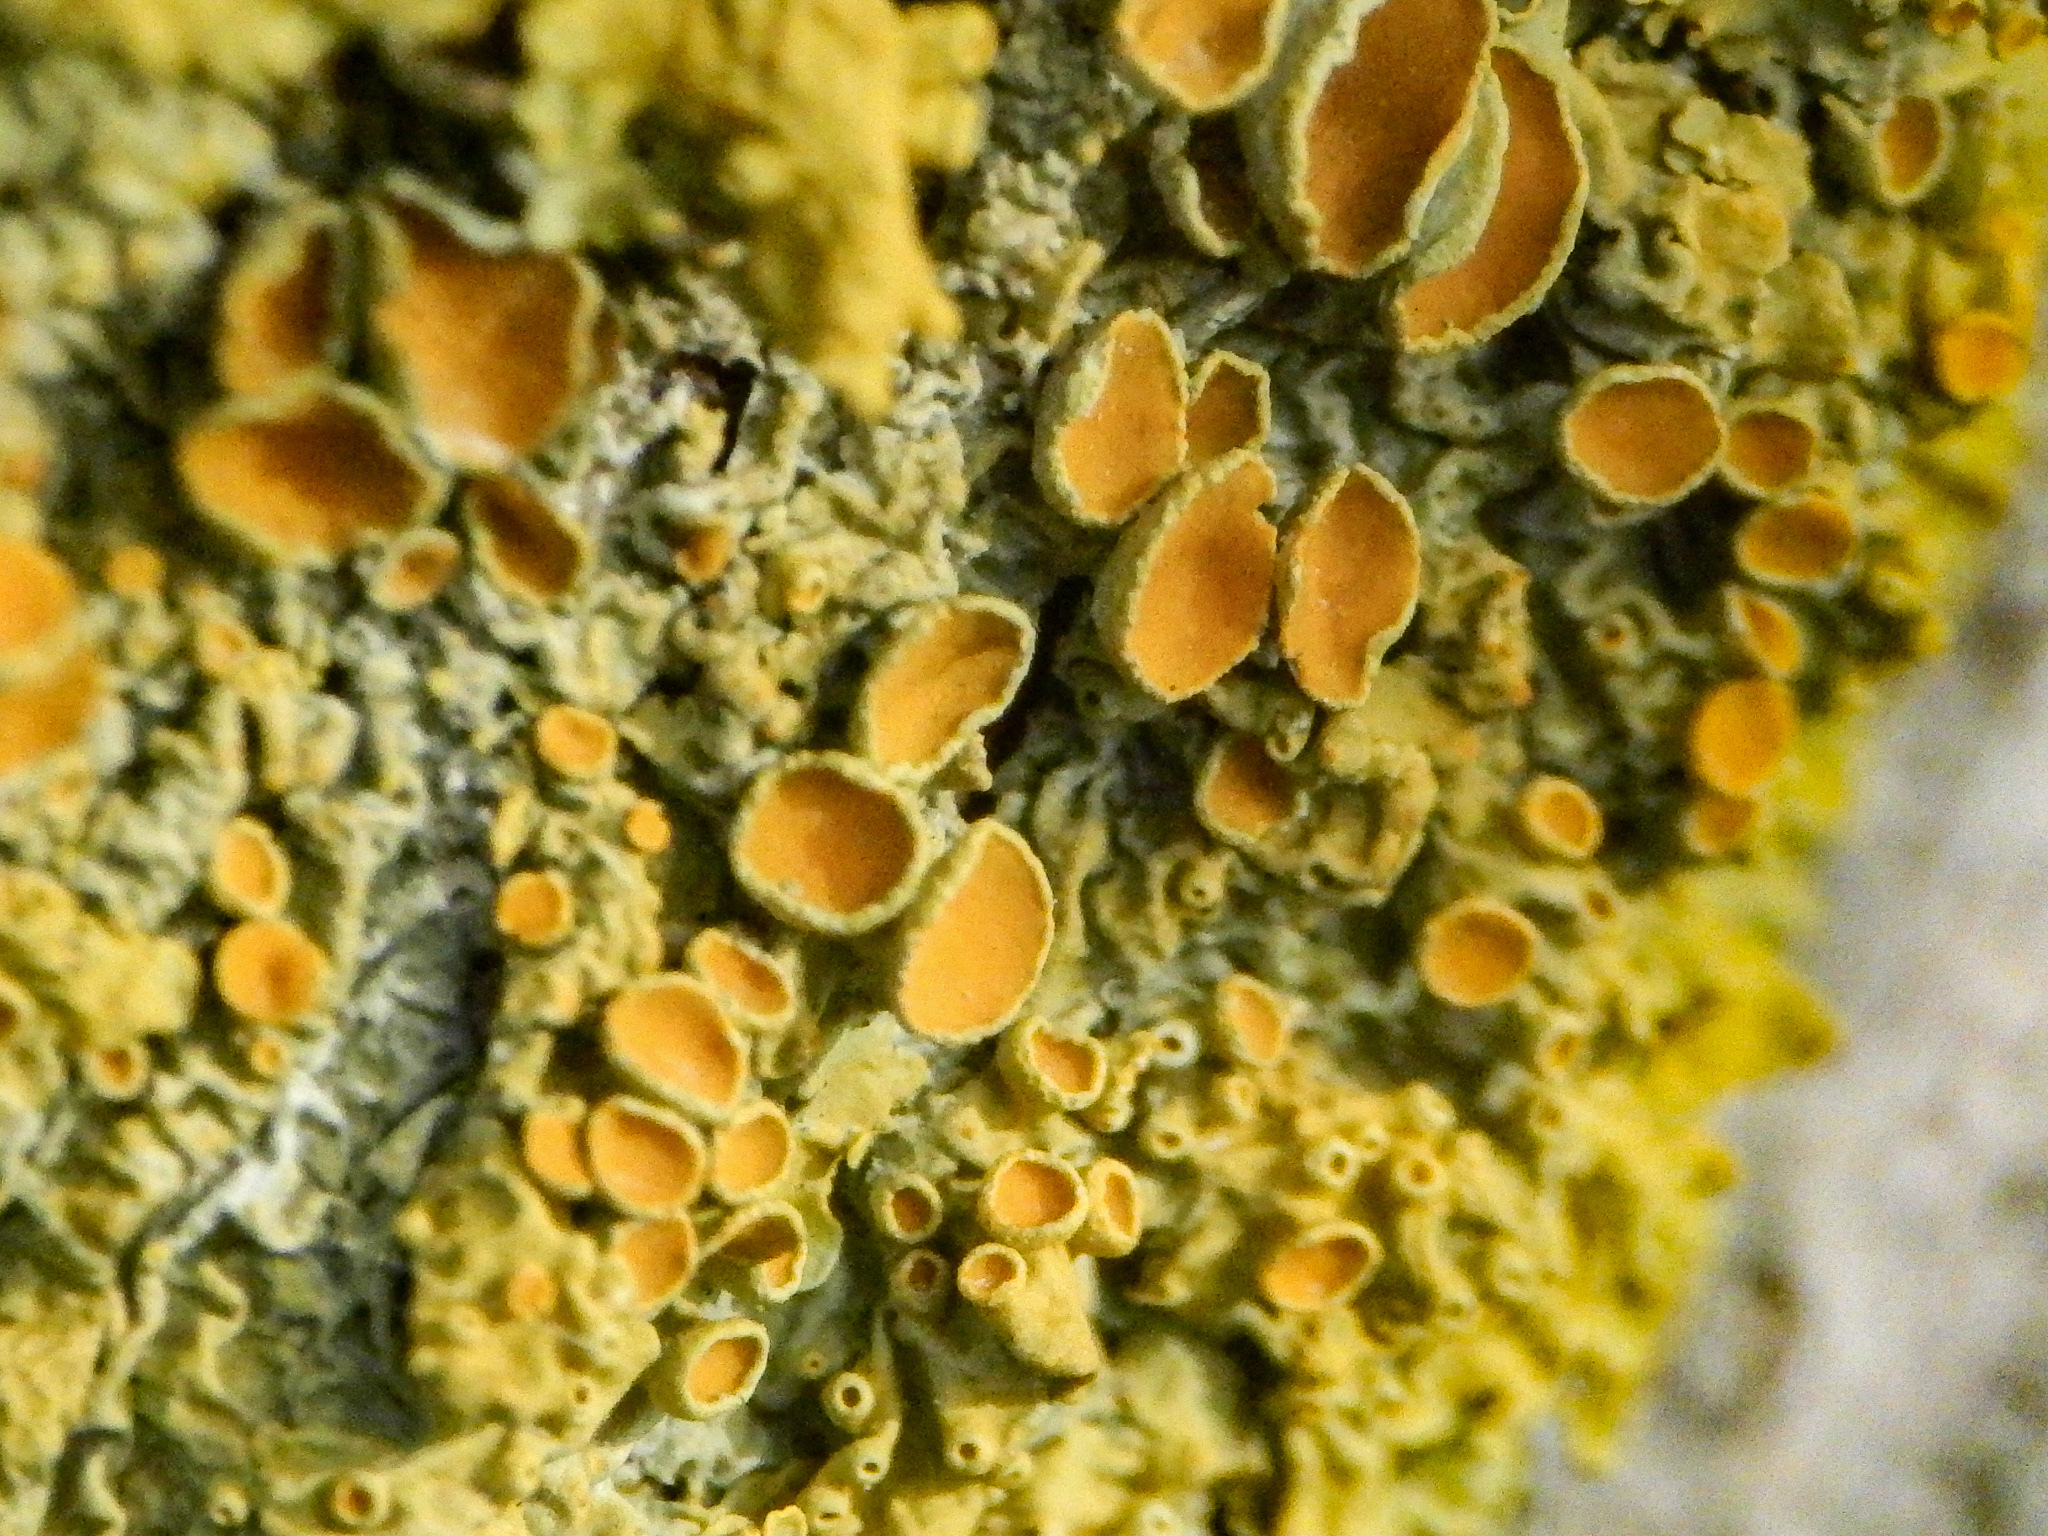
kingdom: Fungi
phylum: Ascomycota
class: Lecanoromycetes
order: Teloschistales
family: Teloschistaceae
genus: Xanthoria
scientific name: Xanthoria parietina
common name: Common orange lichen
